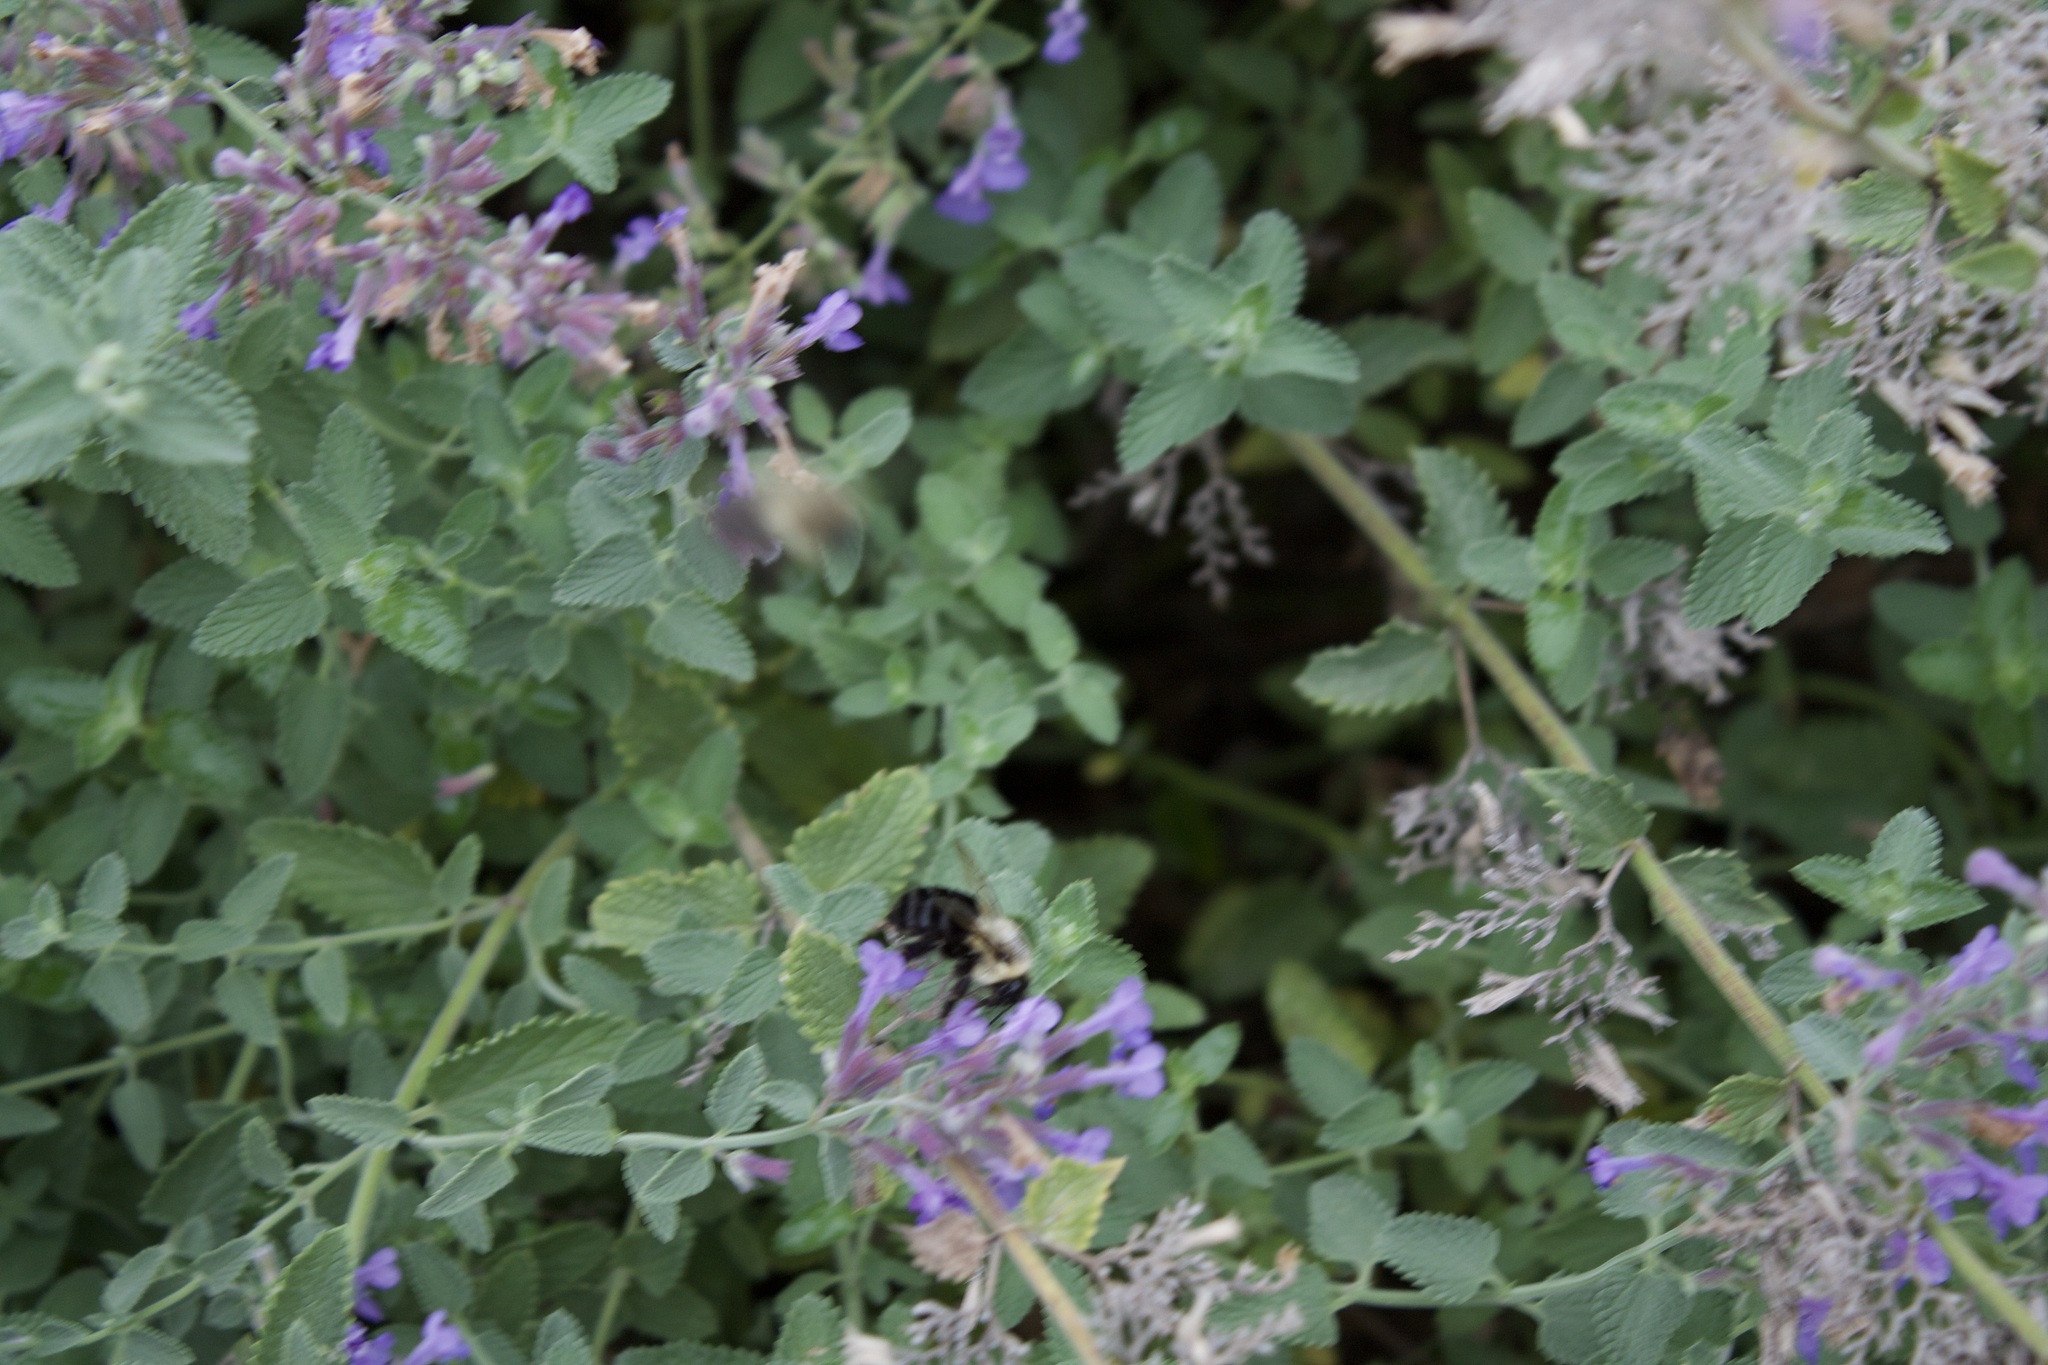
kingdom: Animalia
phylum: Arthropoda
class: Insecta
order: Hymenoptera
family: Apidae
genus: Bombus
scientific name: Bombus impatiens
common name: Common eastern bumble bee
